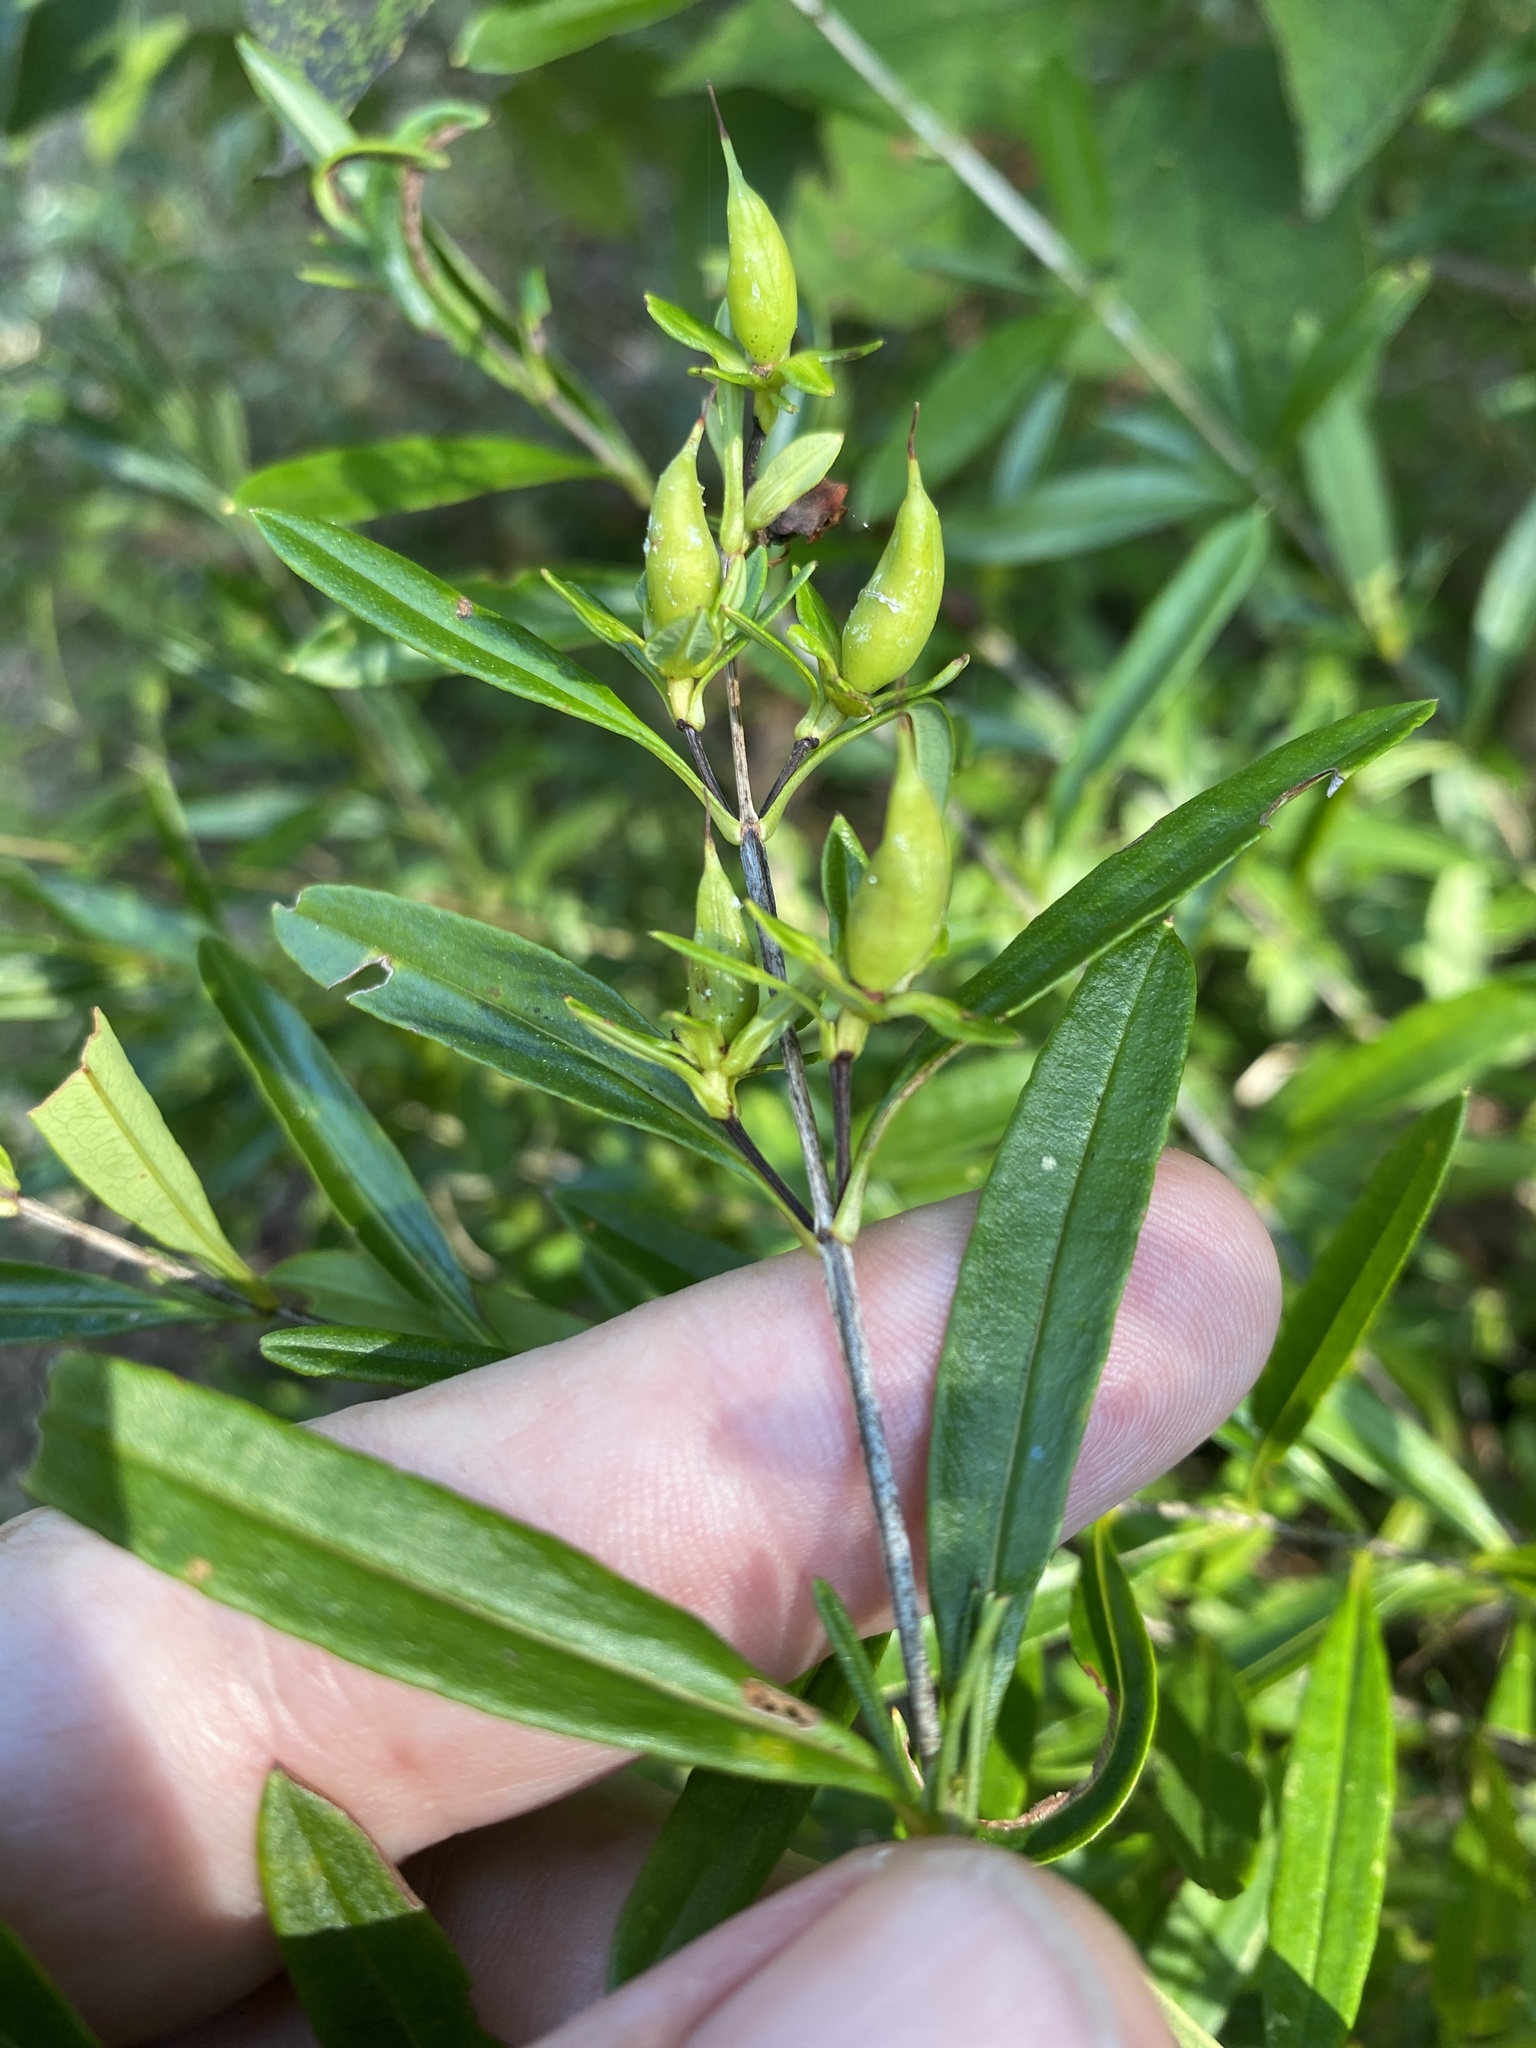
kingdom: Plantae
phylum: Tracheophyta
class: Magnoliopsida
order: Malpighiales
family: Hypericaceae
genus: Hypericum
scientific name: Hypericum prolificum
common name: Shrubby st. john's-wort
